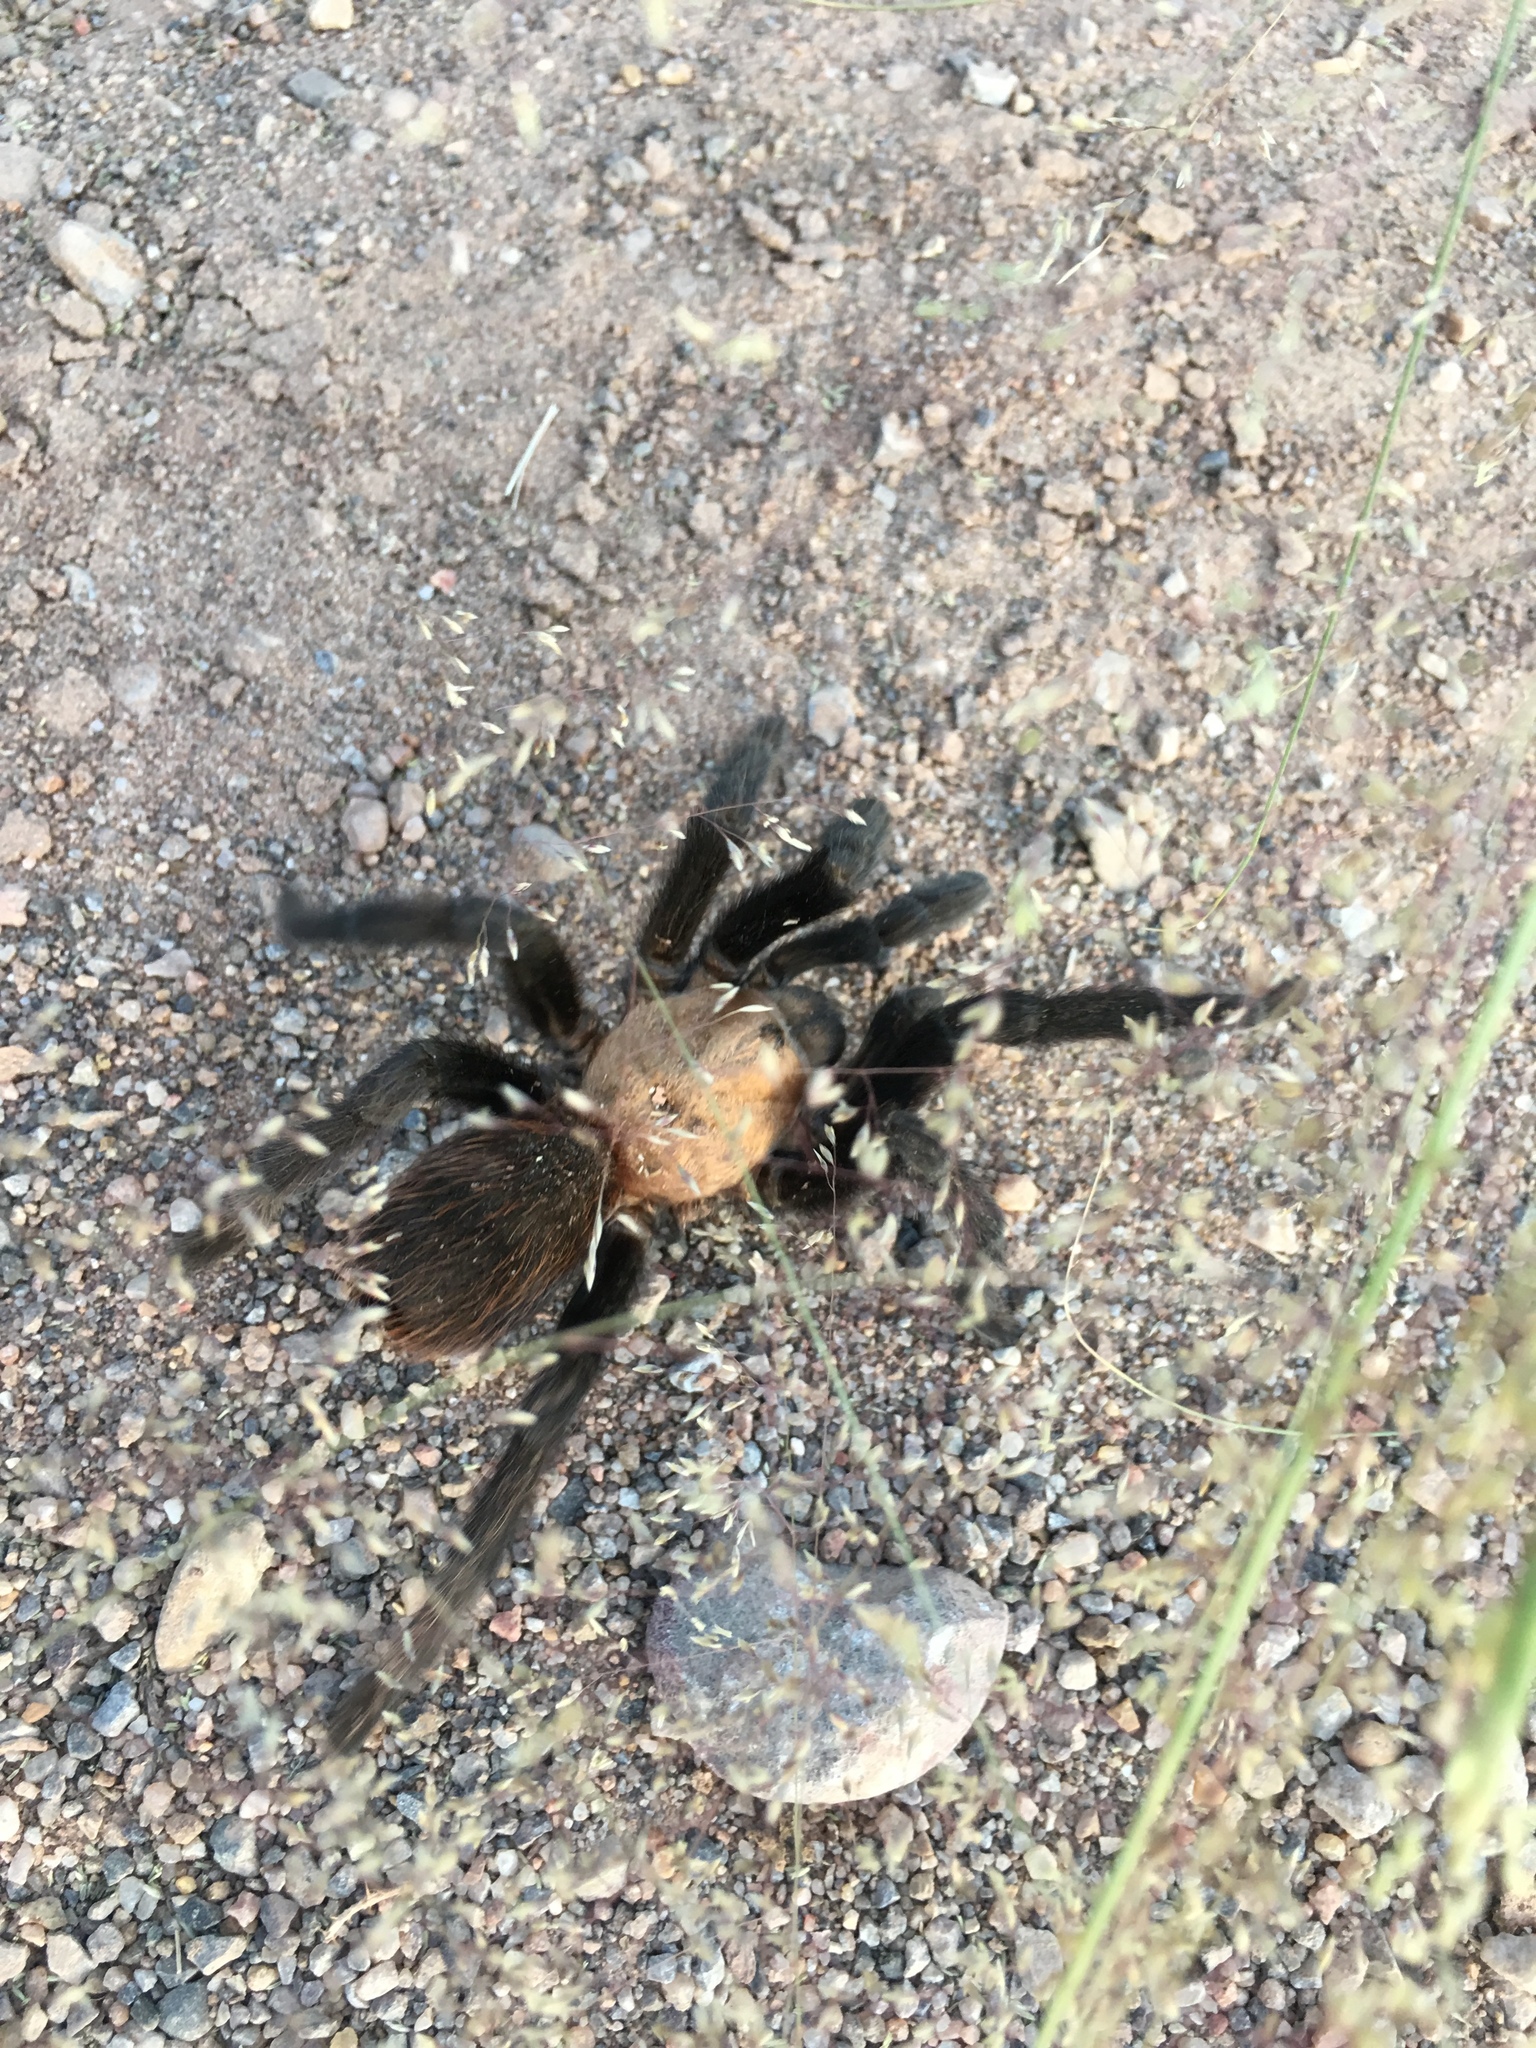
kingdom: Animalia
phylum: Arthropoda
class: Arachnida
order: Araneae
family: Theraphosidae
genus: Aphonopelma
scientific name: Aphonopelma hentzi
